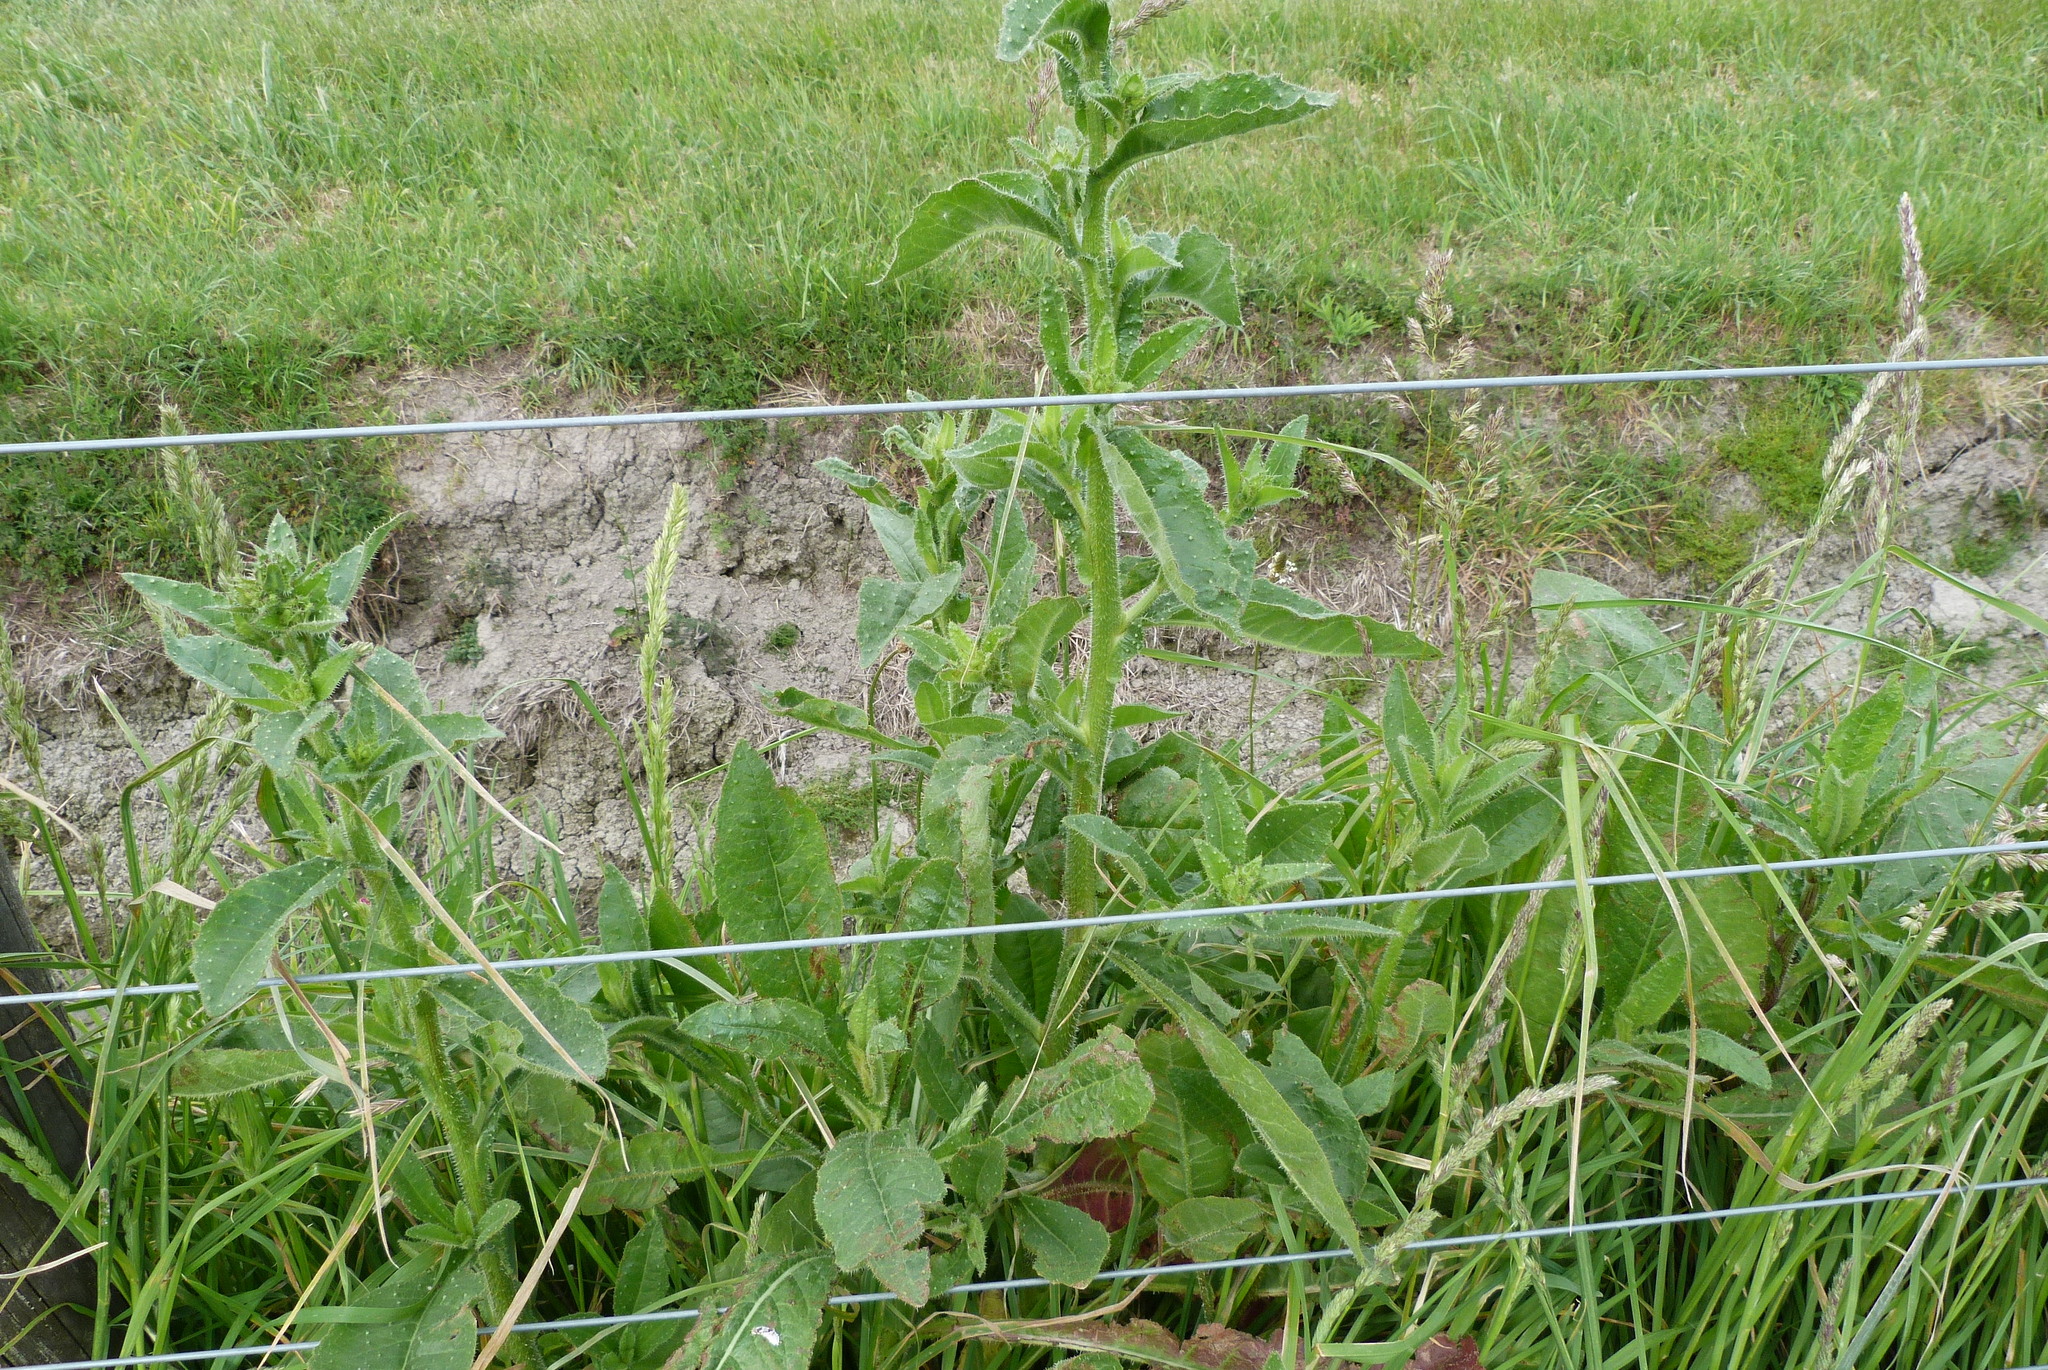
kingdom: Plantae
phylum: Tracheophyta
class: Magnoliopsida
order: Asterales
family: Asteraceae
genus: Helminthotheca
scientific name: Helminthotheca echioides
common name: Ox-tongue
